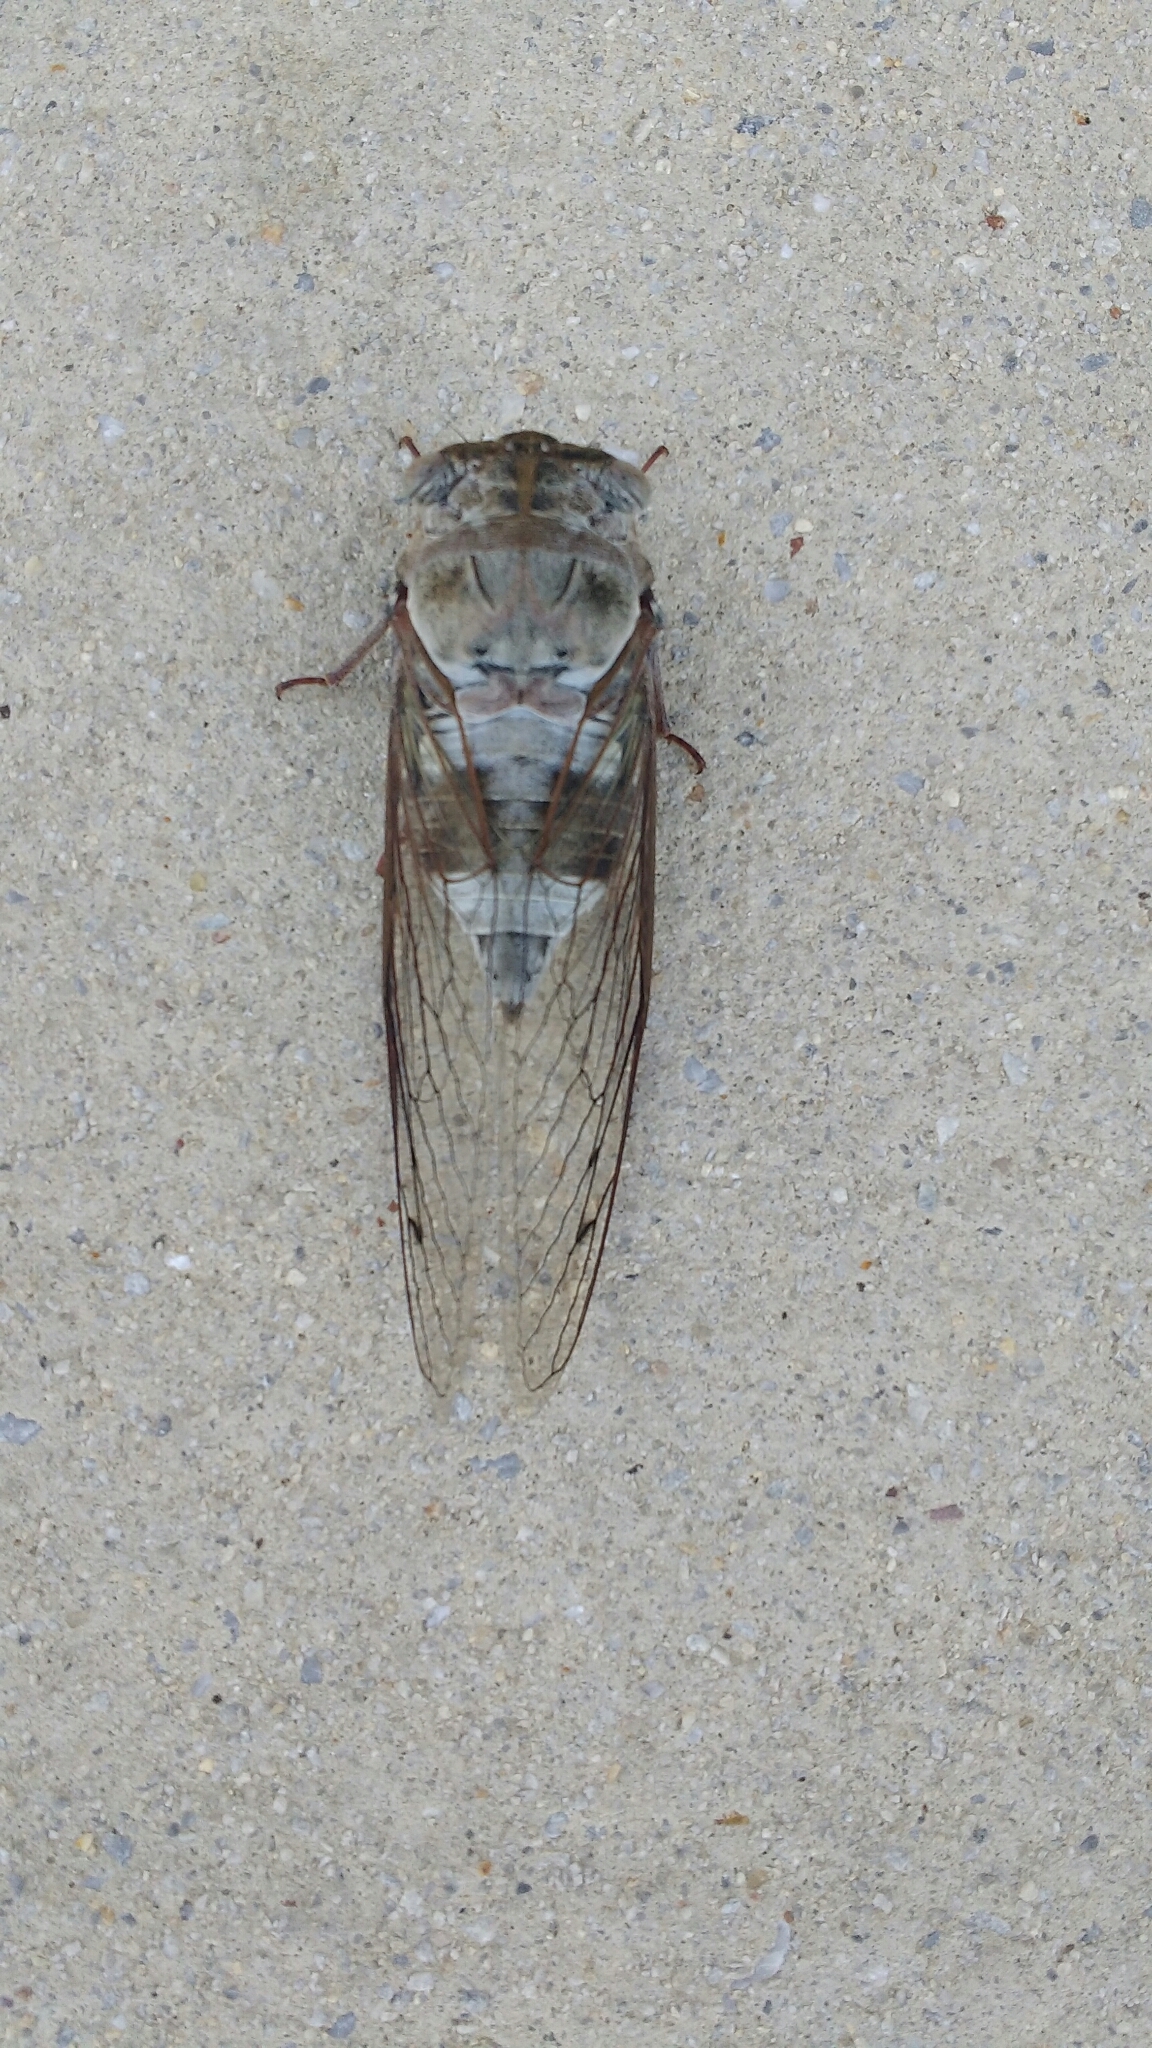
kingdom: Animalia
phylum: Arthropoda
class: Insecta
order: Hemiptera
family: Cicadidae
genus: Diceroprocta
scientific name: Diceroprocta grossa
